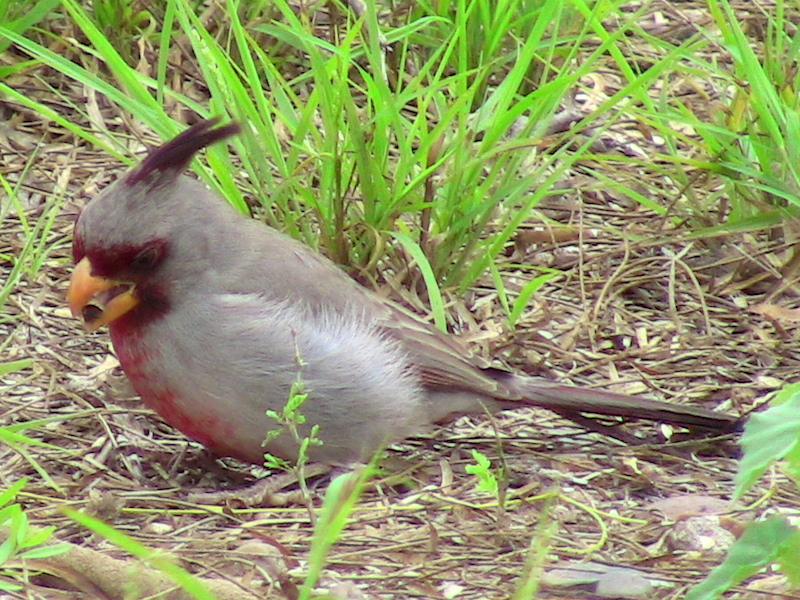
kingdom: Animalia
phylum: Chordata
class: Aves
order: Passeriformes
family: Cardinalidae
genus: Cardinalis
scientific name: Cardinalis sinuatus
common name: Pyrrhuloxia
